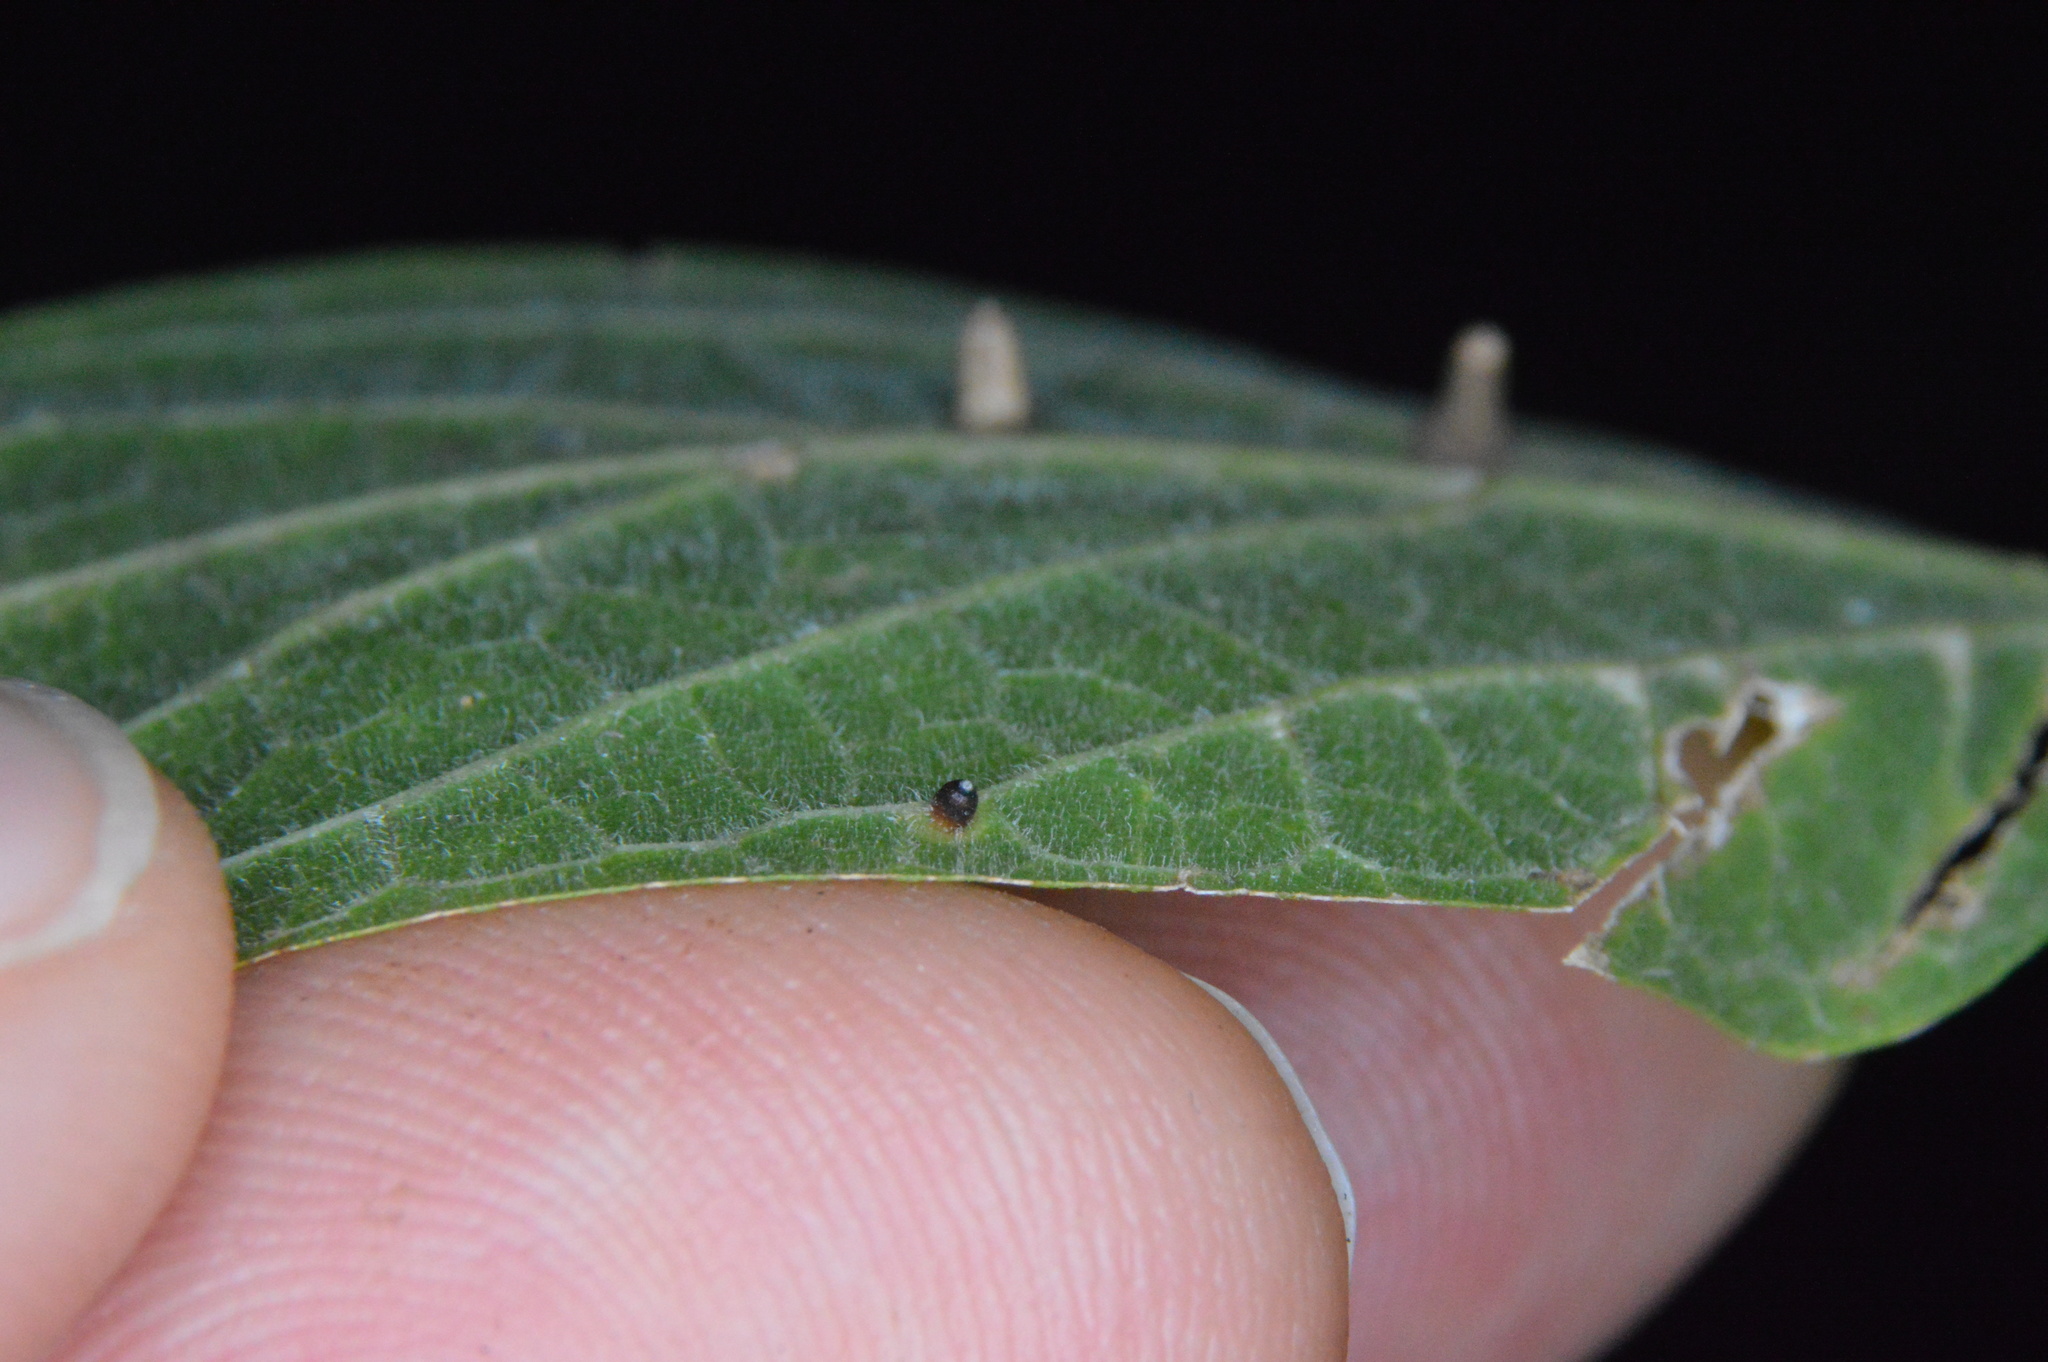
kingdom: Animalia
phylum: Arthropoda
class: Insecta
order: Diptera
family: Cecidomyiidae
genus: Celticecis
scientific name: Celticecis cupiformis
